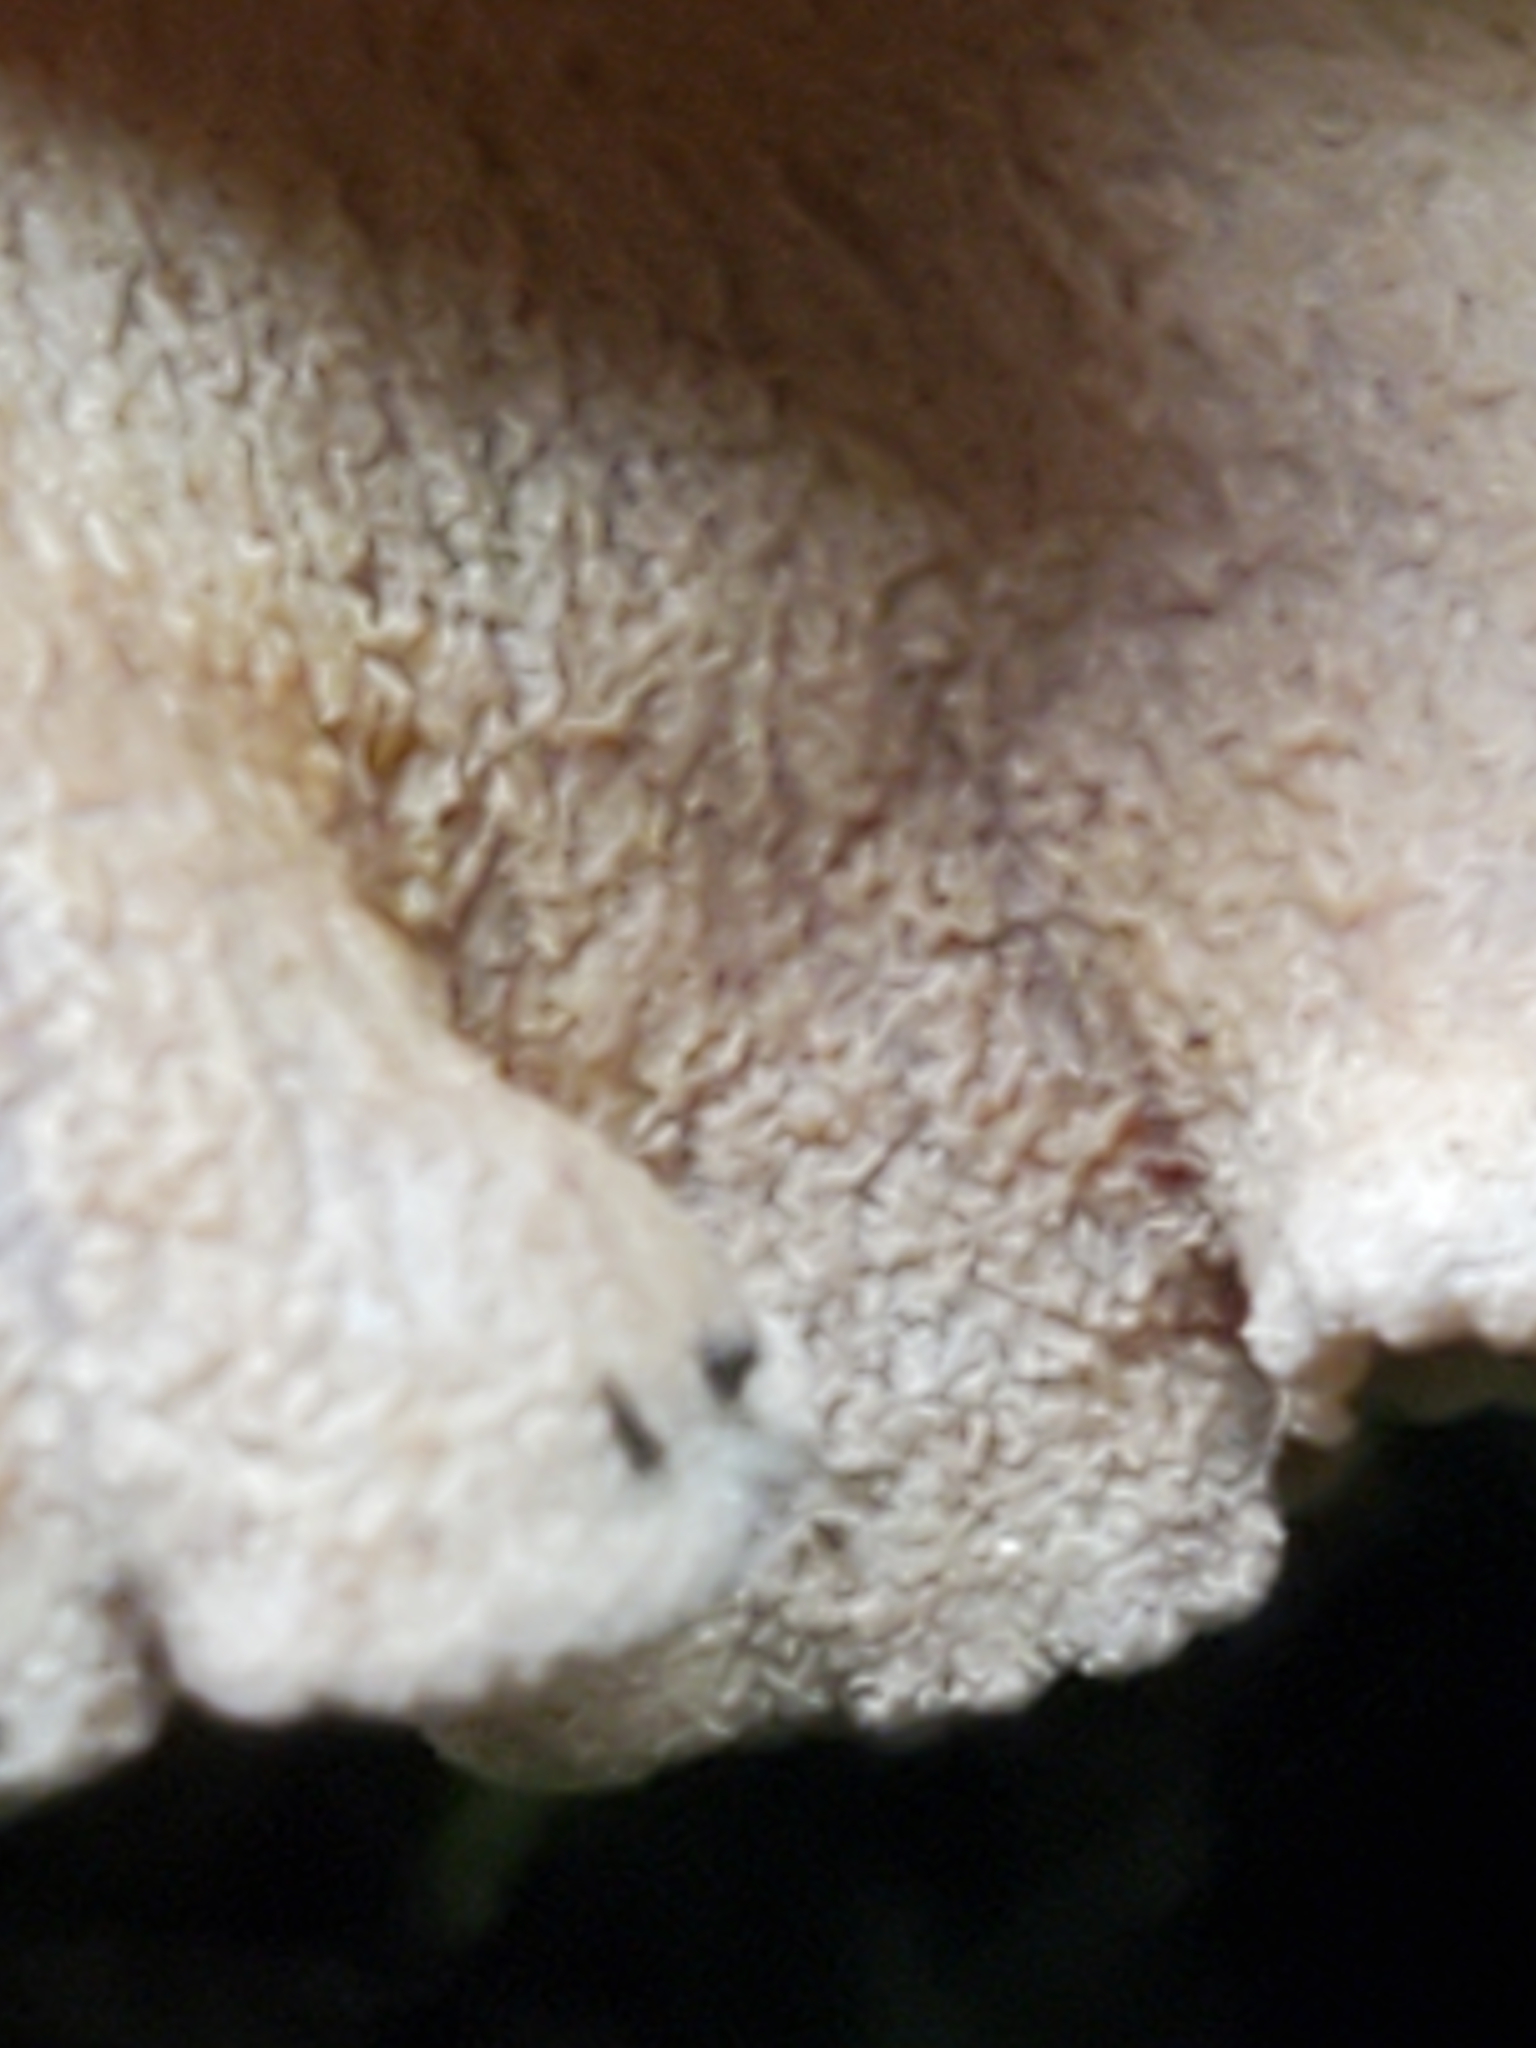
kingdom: Fungi
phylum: Basidiomycota
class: Agaricomycetes
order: Agaricales
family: Mycenaceae
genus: Panellus
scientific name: Panellus stipticus
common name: Bitter oysterling
